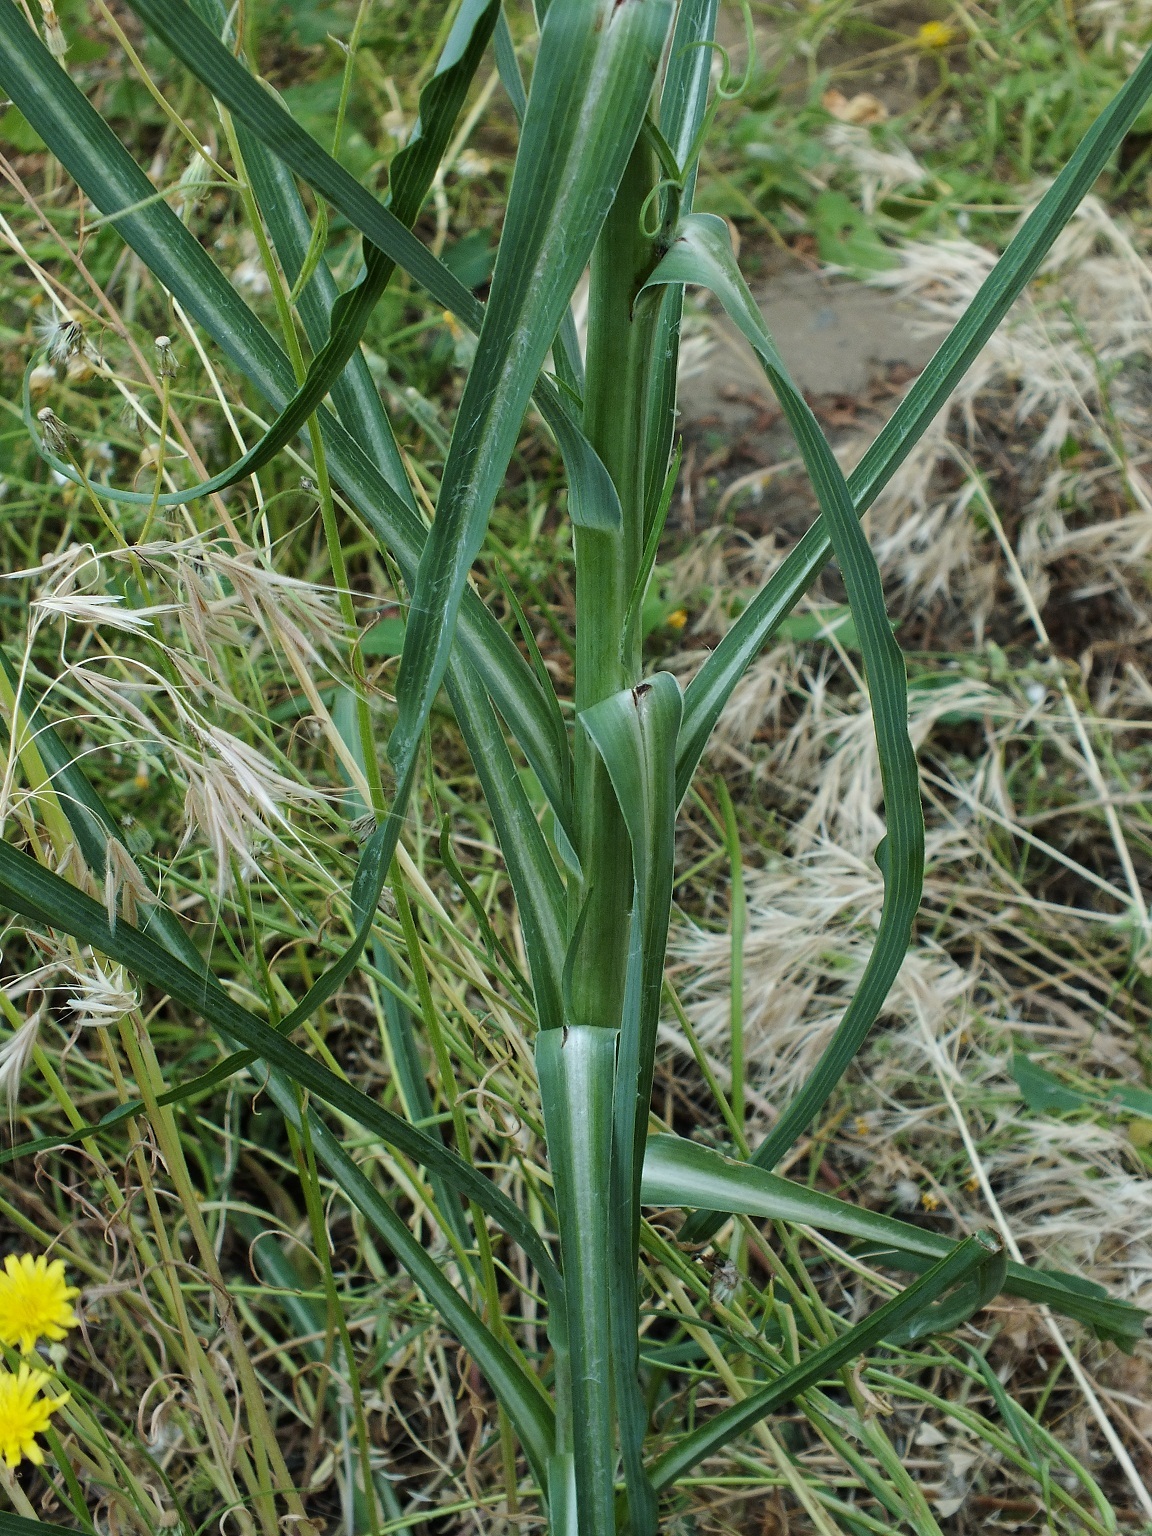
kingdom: Plantae
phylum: Tracheophyta
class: Magnoliopsida
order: Asterales
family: Asteraceae
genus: Tragopogon
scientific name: Tragopogon dubius
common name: Yellow salsify
